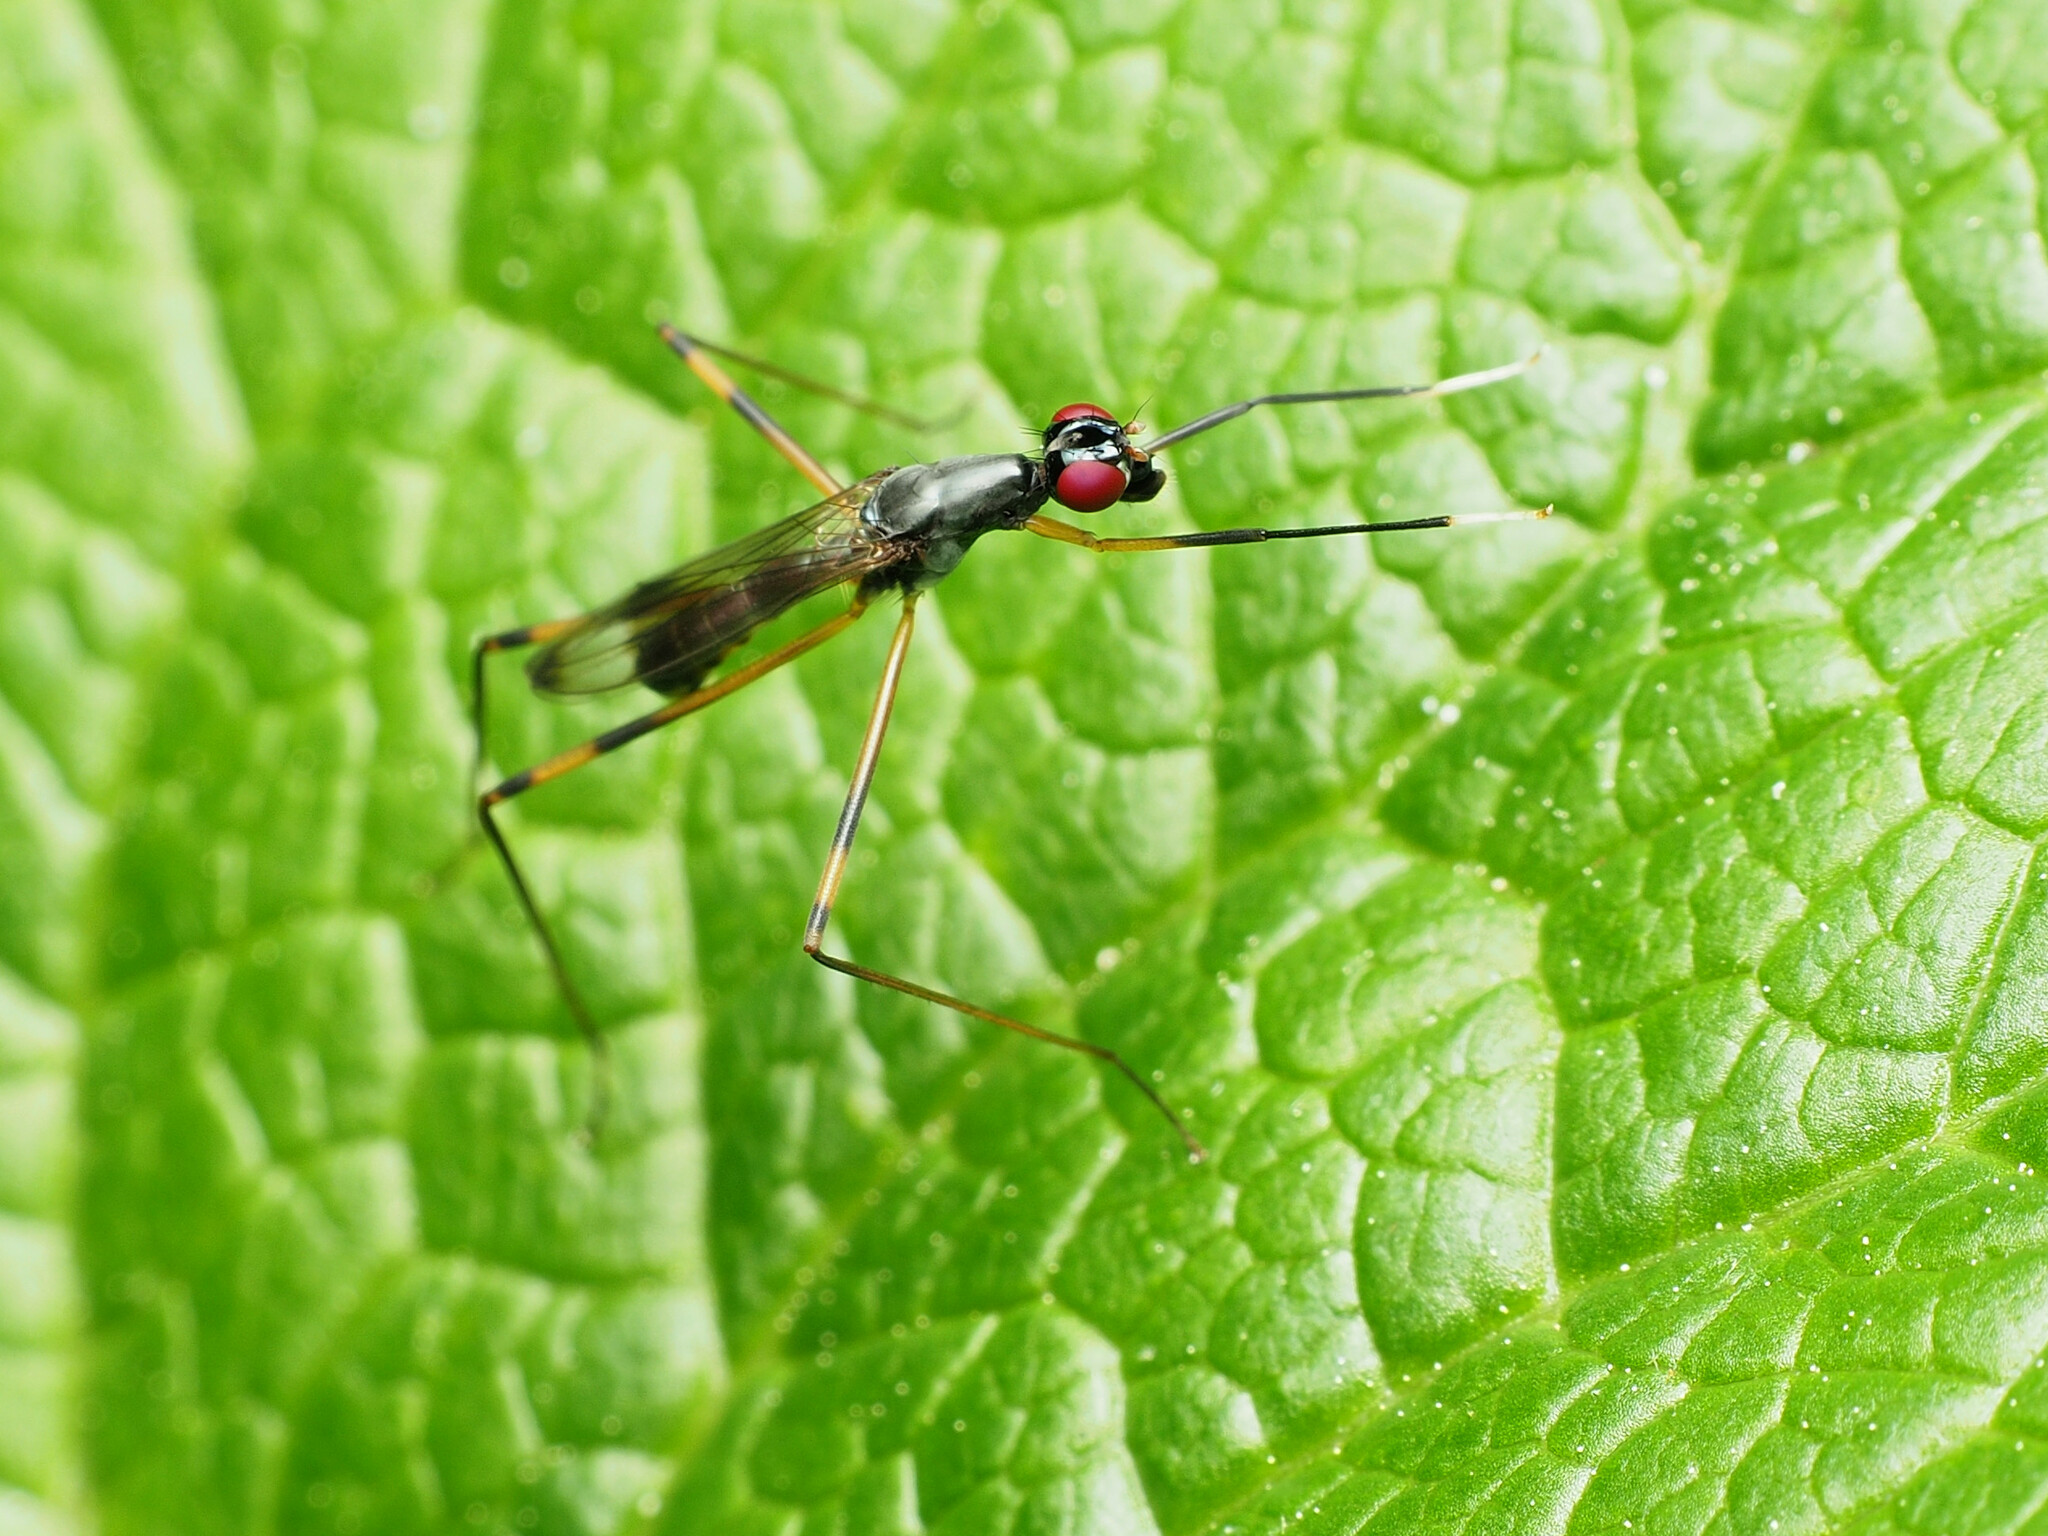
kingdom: Animalia
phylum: Arthropoda
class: Insecta
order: Diptera
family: Micropezidae
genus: Rainieria
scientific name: Rainieria antennaepes
